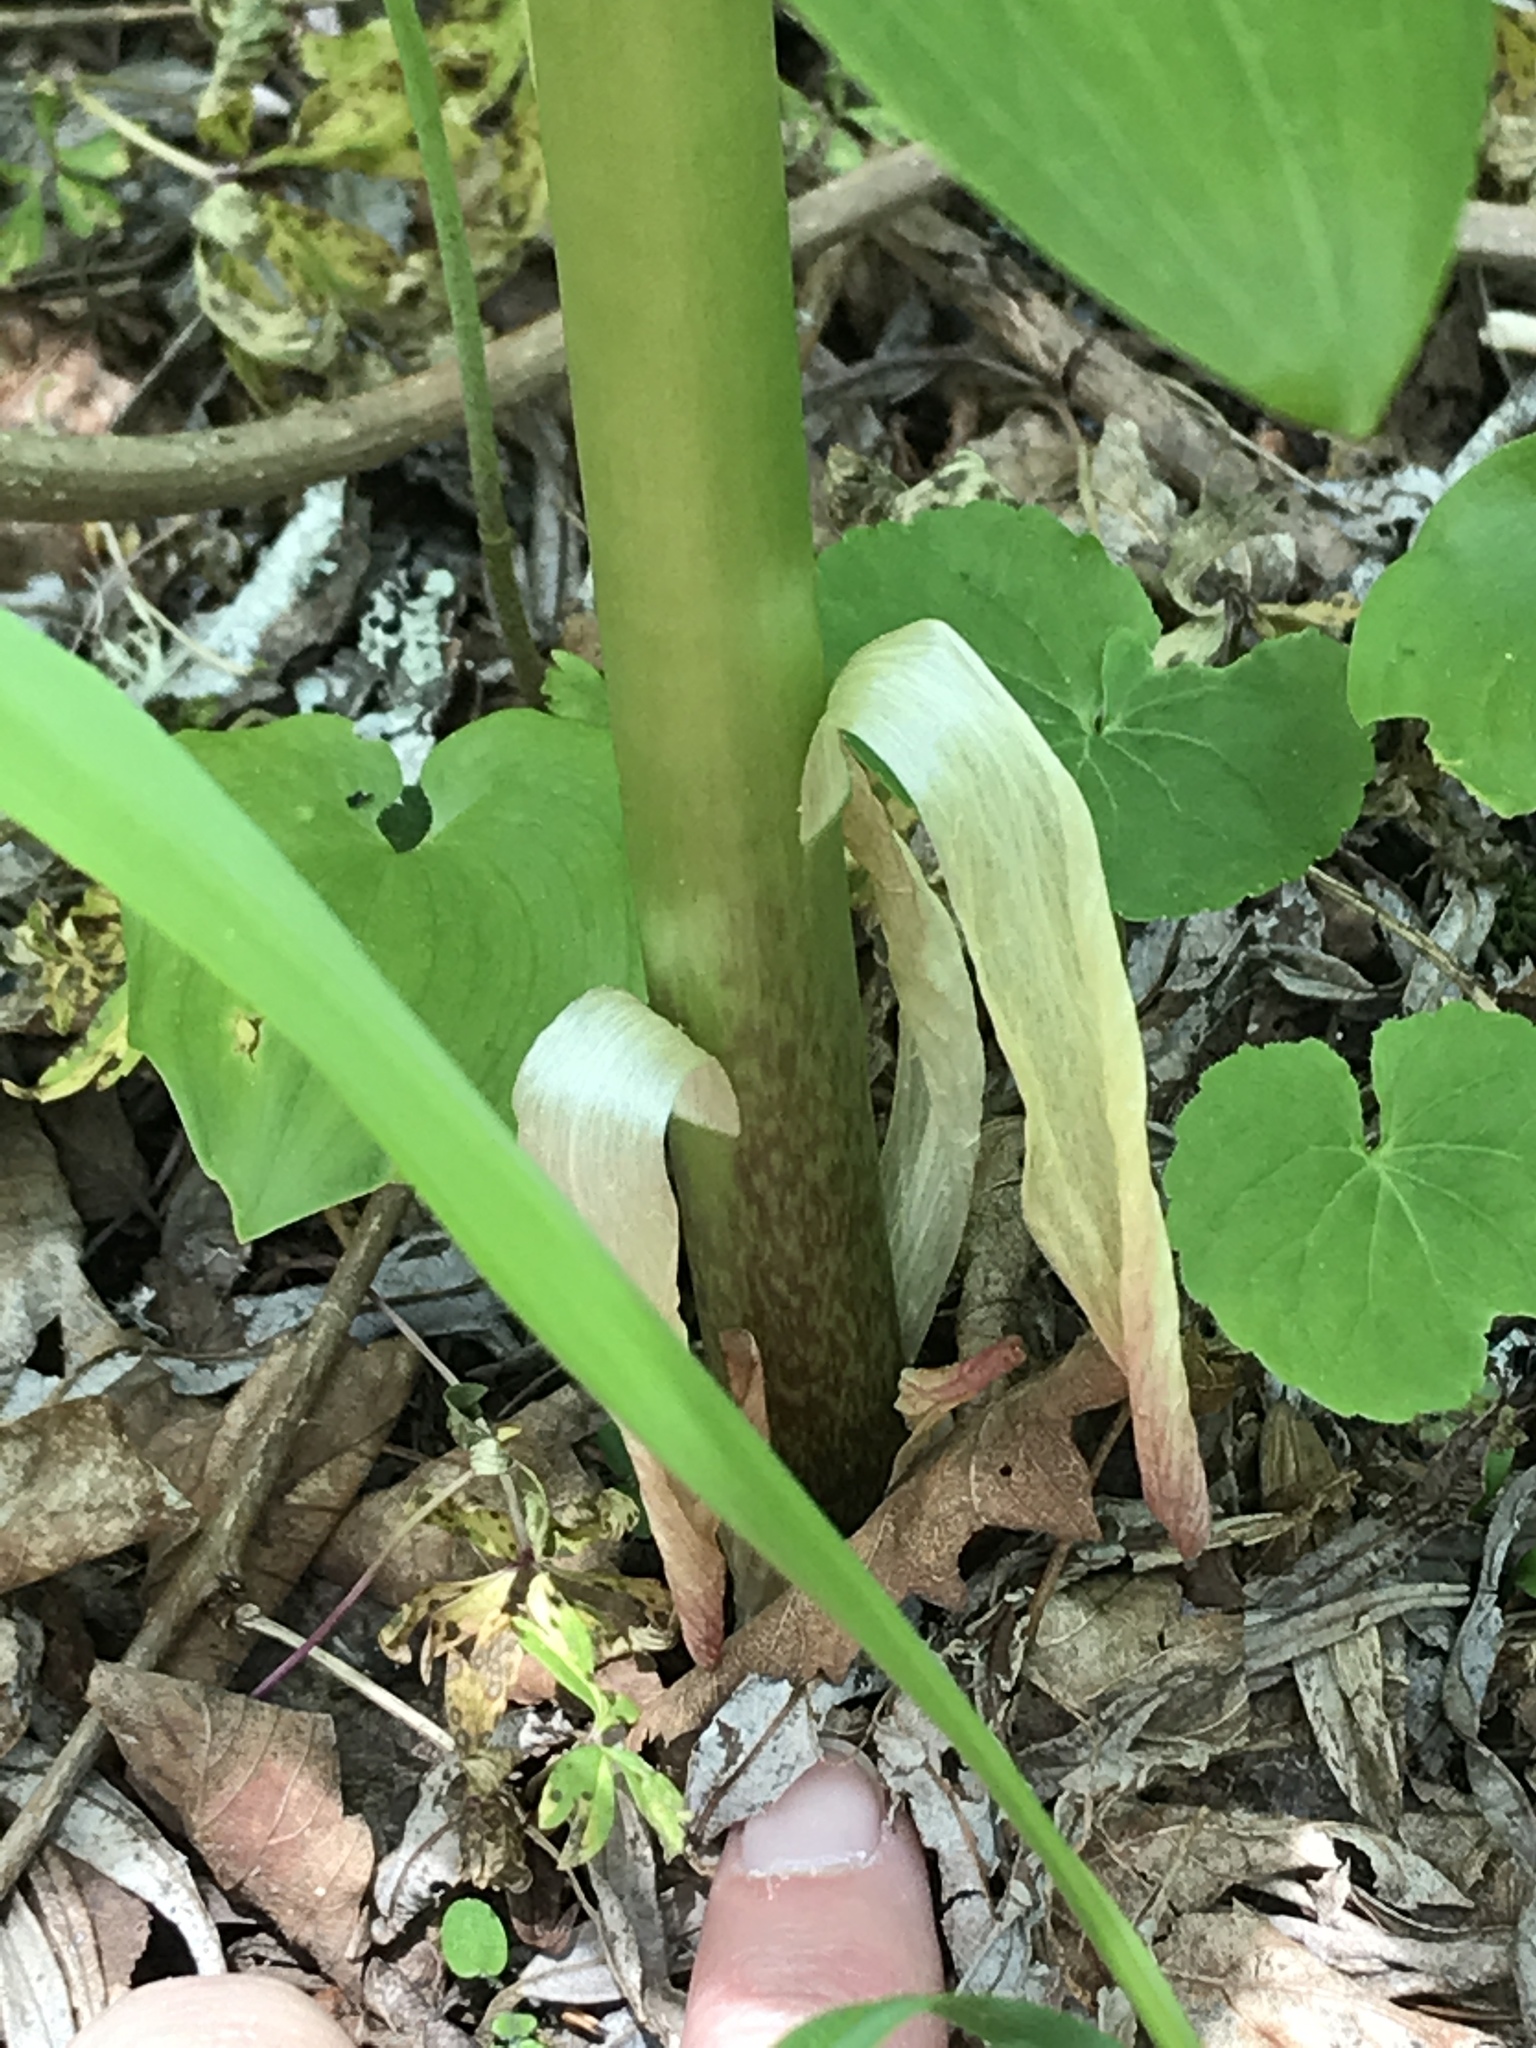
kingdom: Plantae
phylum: Tracheophyta
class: Liliopsida
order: Liliales
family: Liliaceae
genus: Lilium
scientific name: Lilium martagon
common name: Martagon lily
